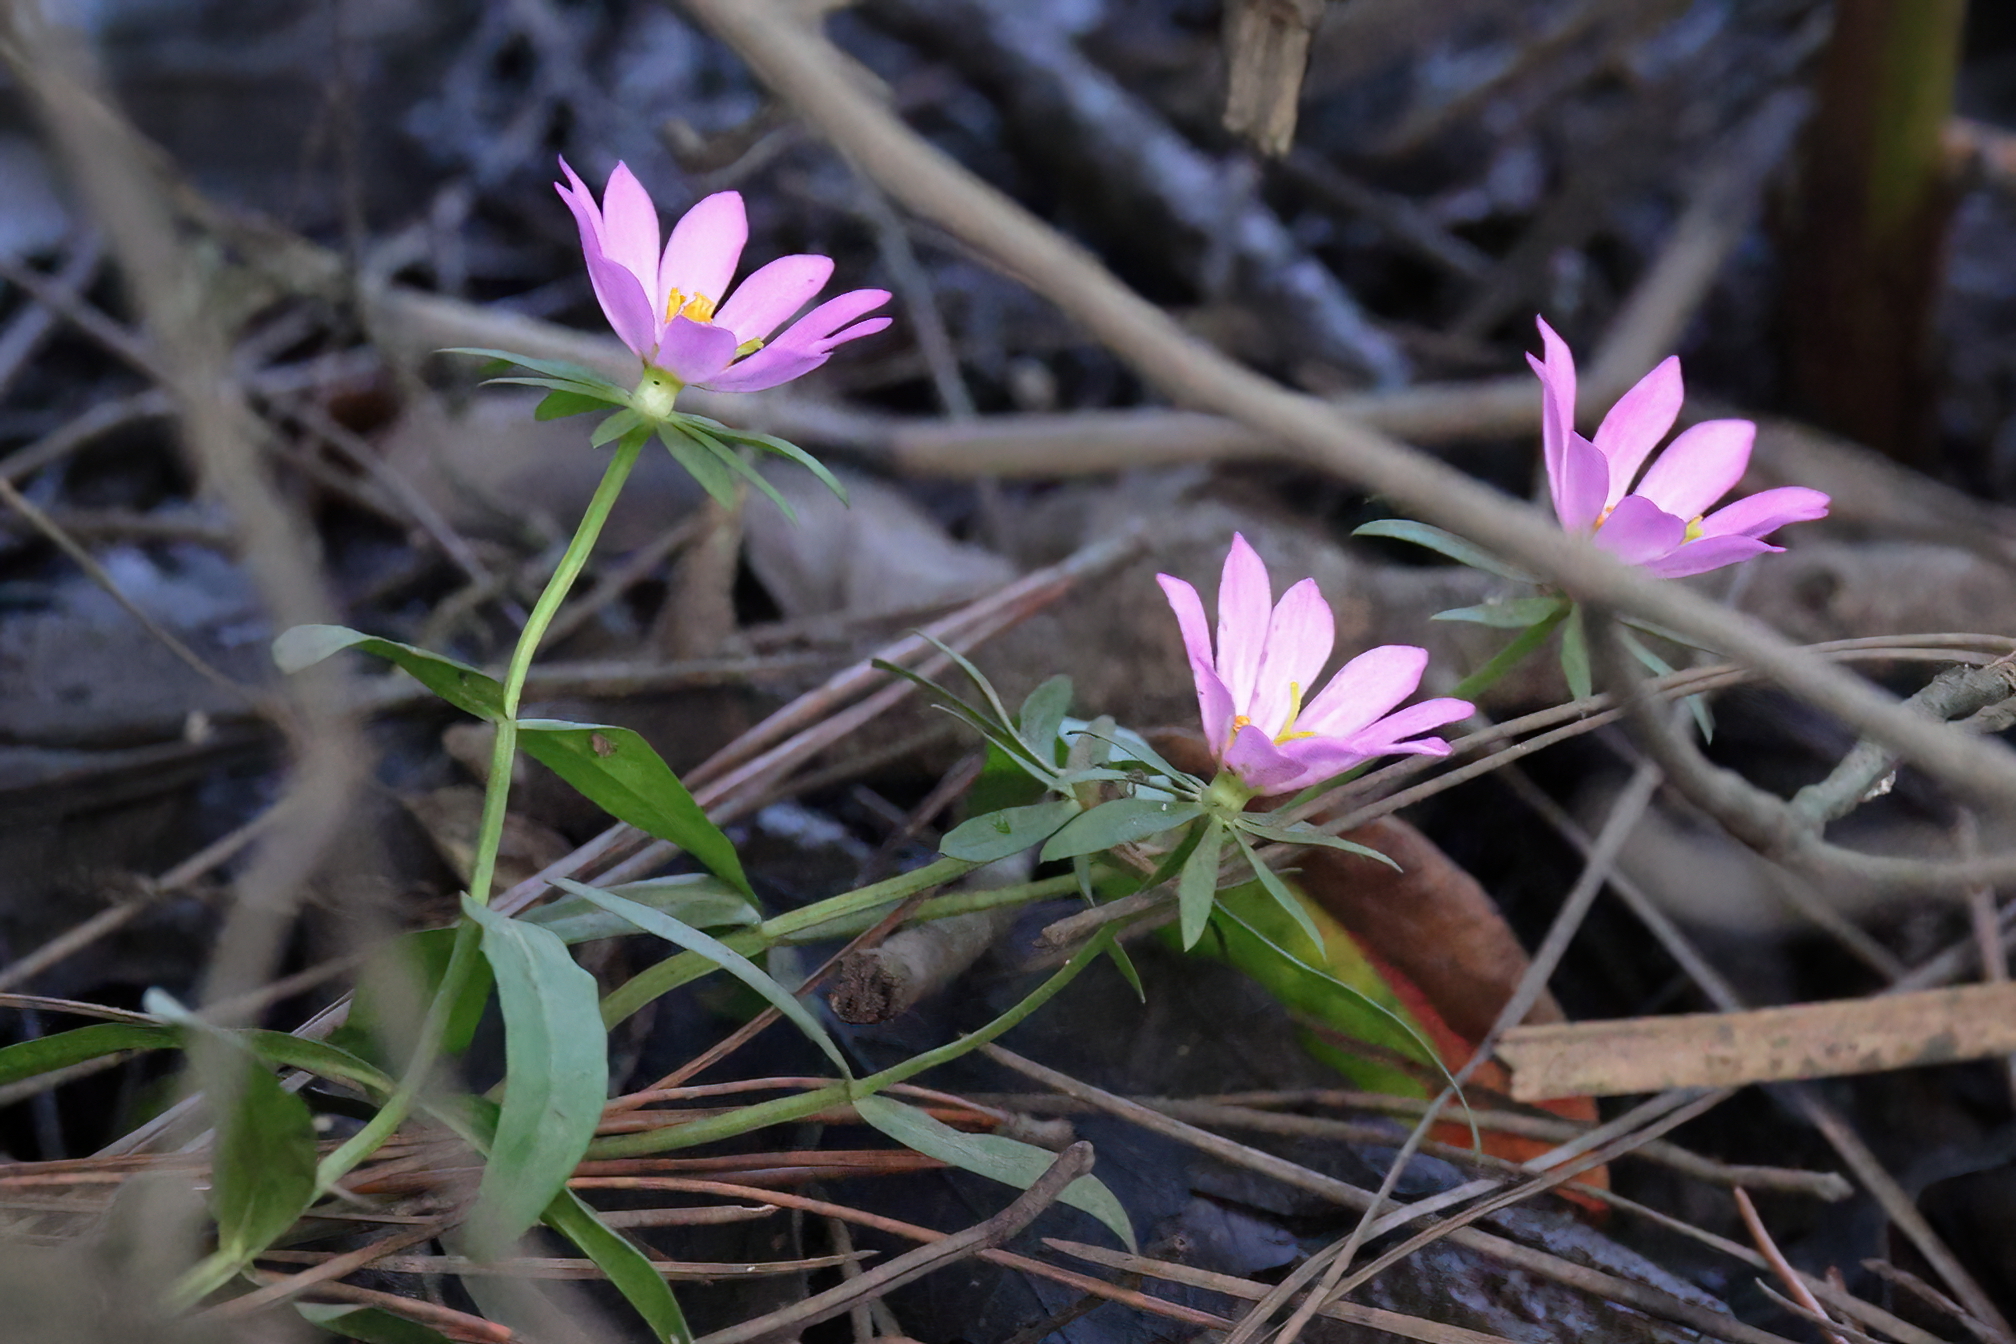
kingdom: Plantae
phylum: Tracheophyta
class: Magnoliopsida
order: Gentianales
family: Gentianaceae
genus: Sabatia
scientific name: Sabatia foliosa
